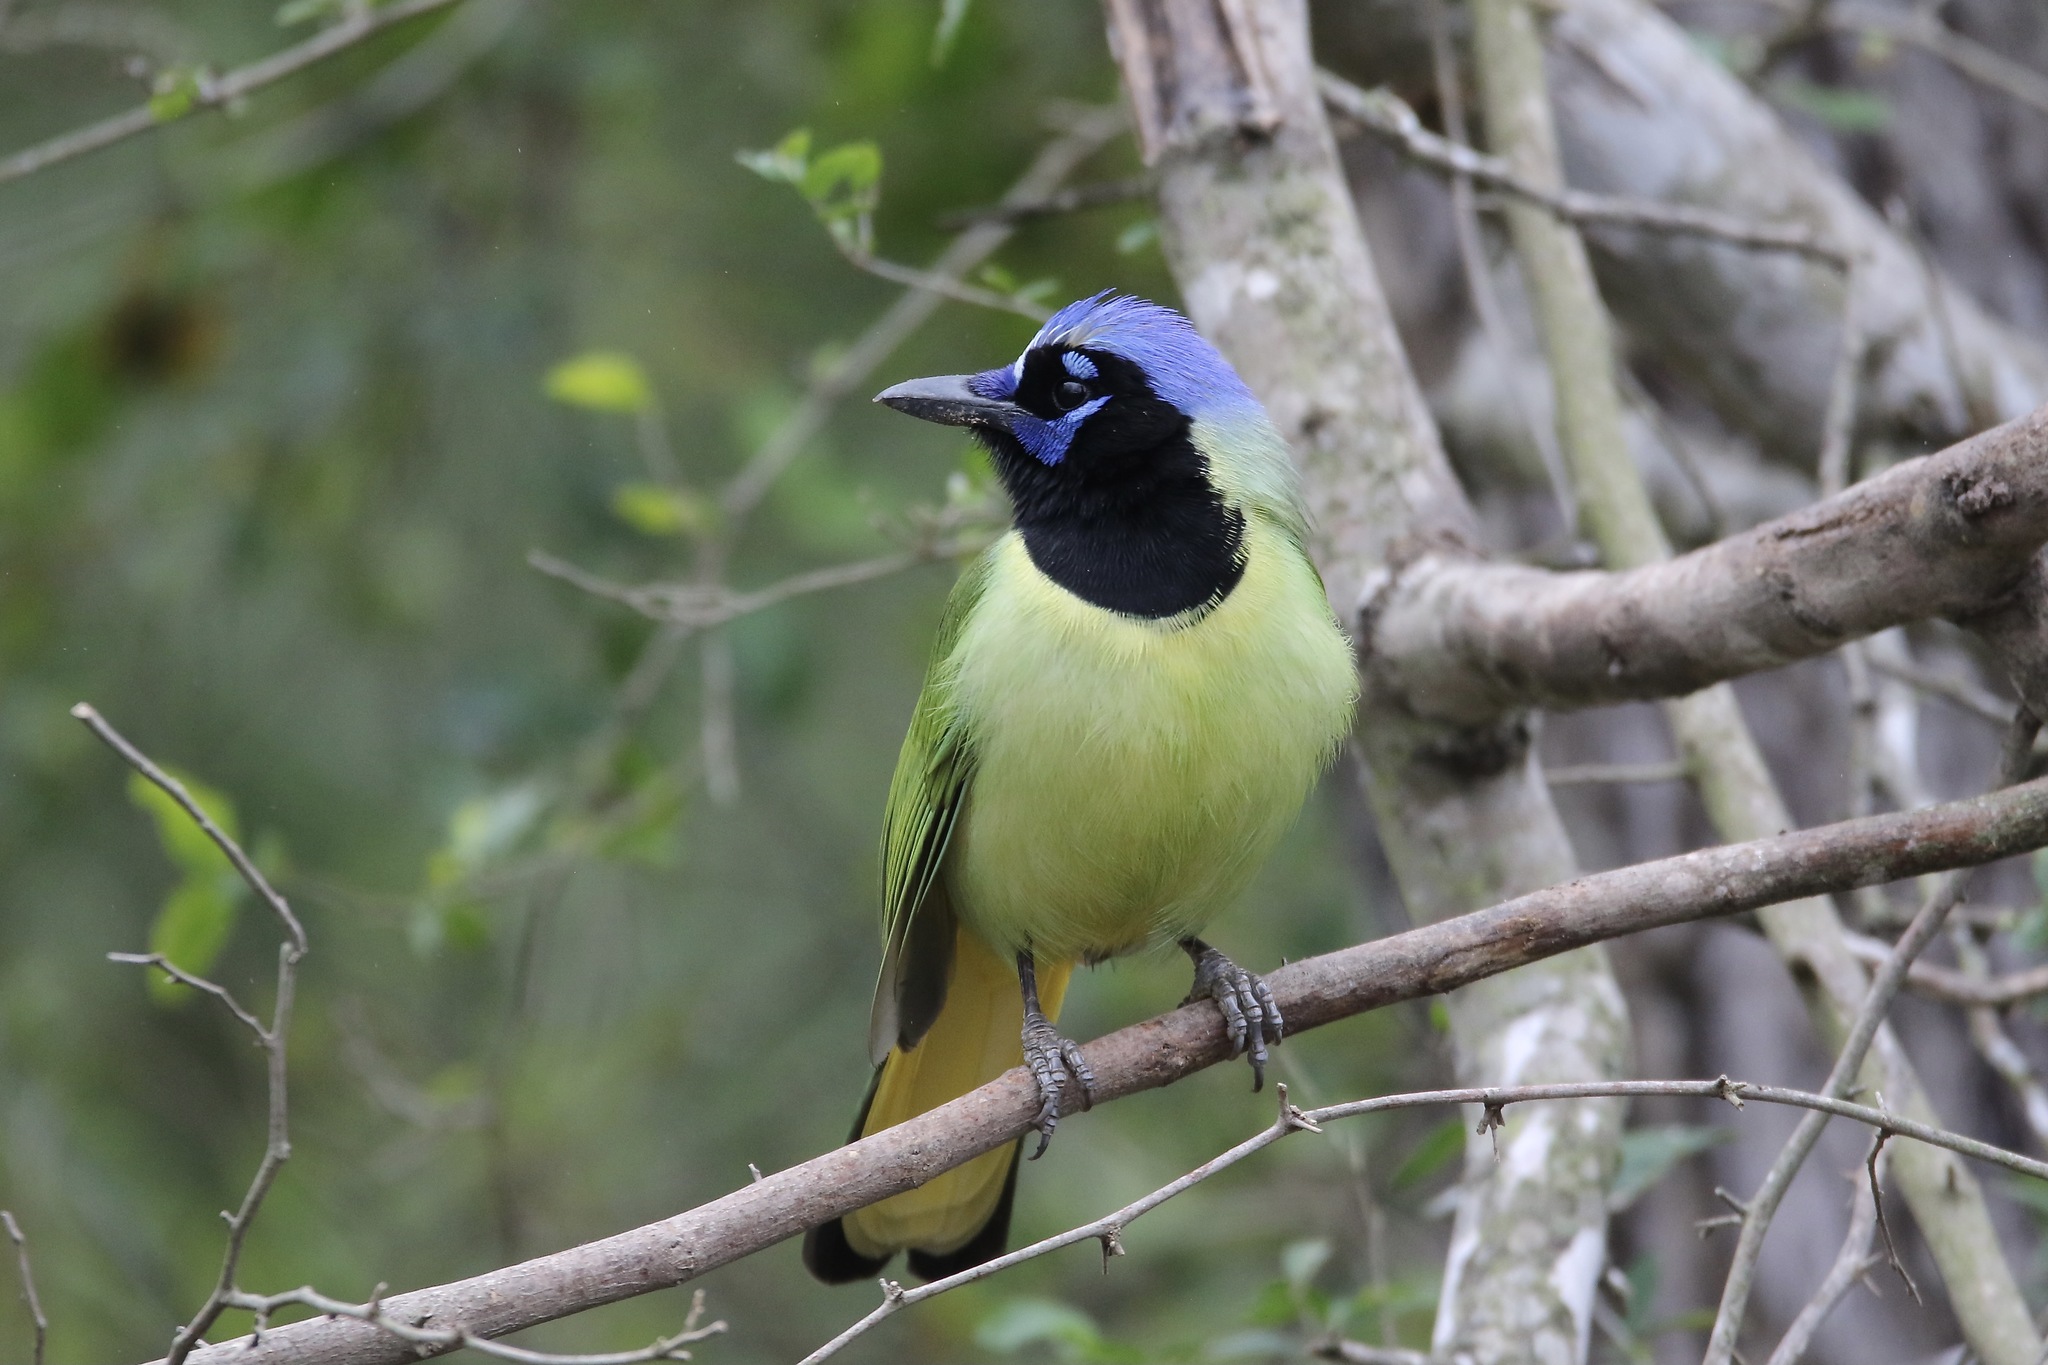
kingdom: Animalia
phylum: Chordata
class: Aves
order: Passeriformes
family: Corvidae
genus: Cyanocorax
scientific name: Cyanocorax yncas
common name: Green jay
